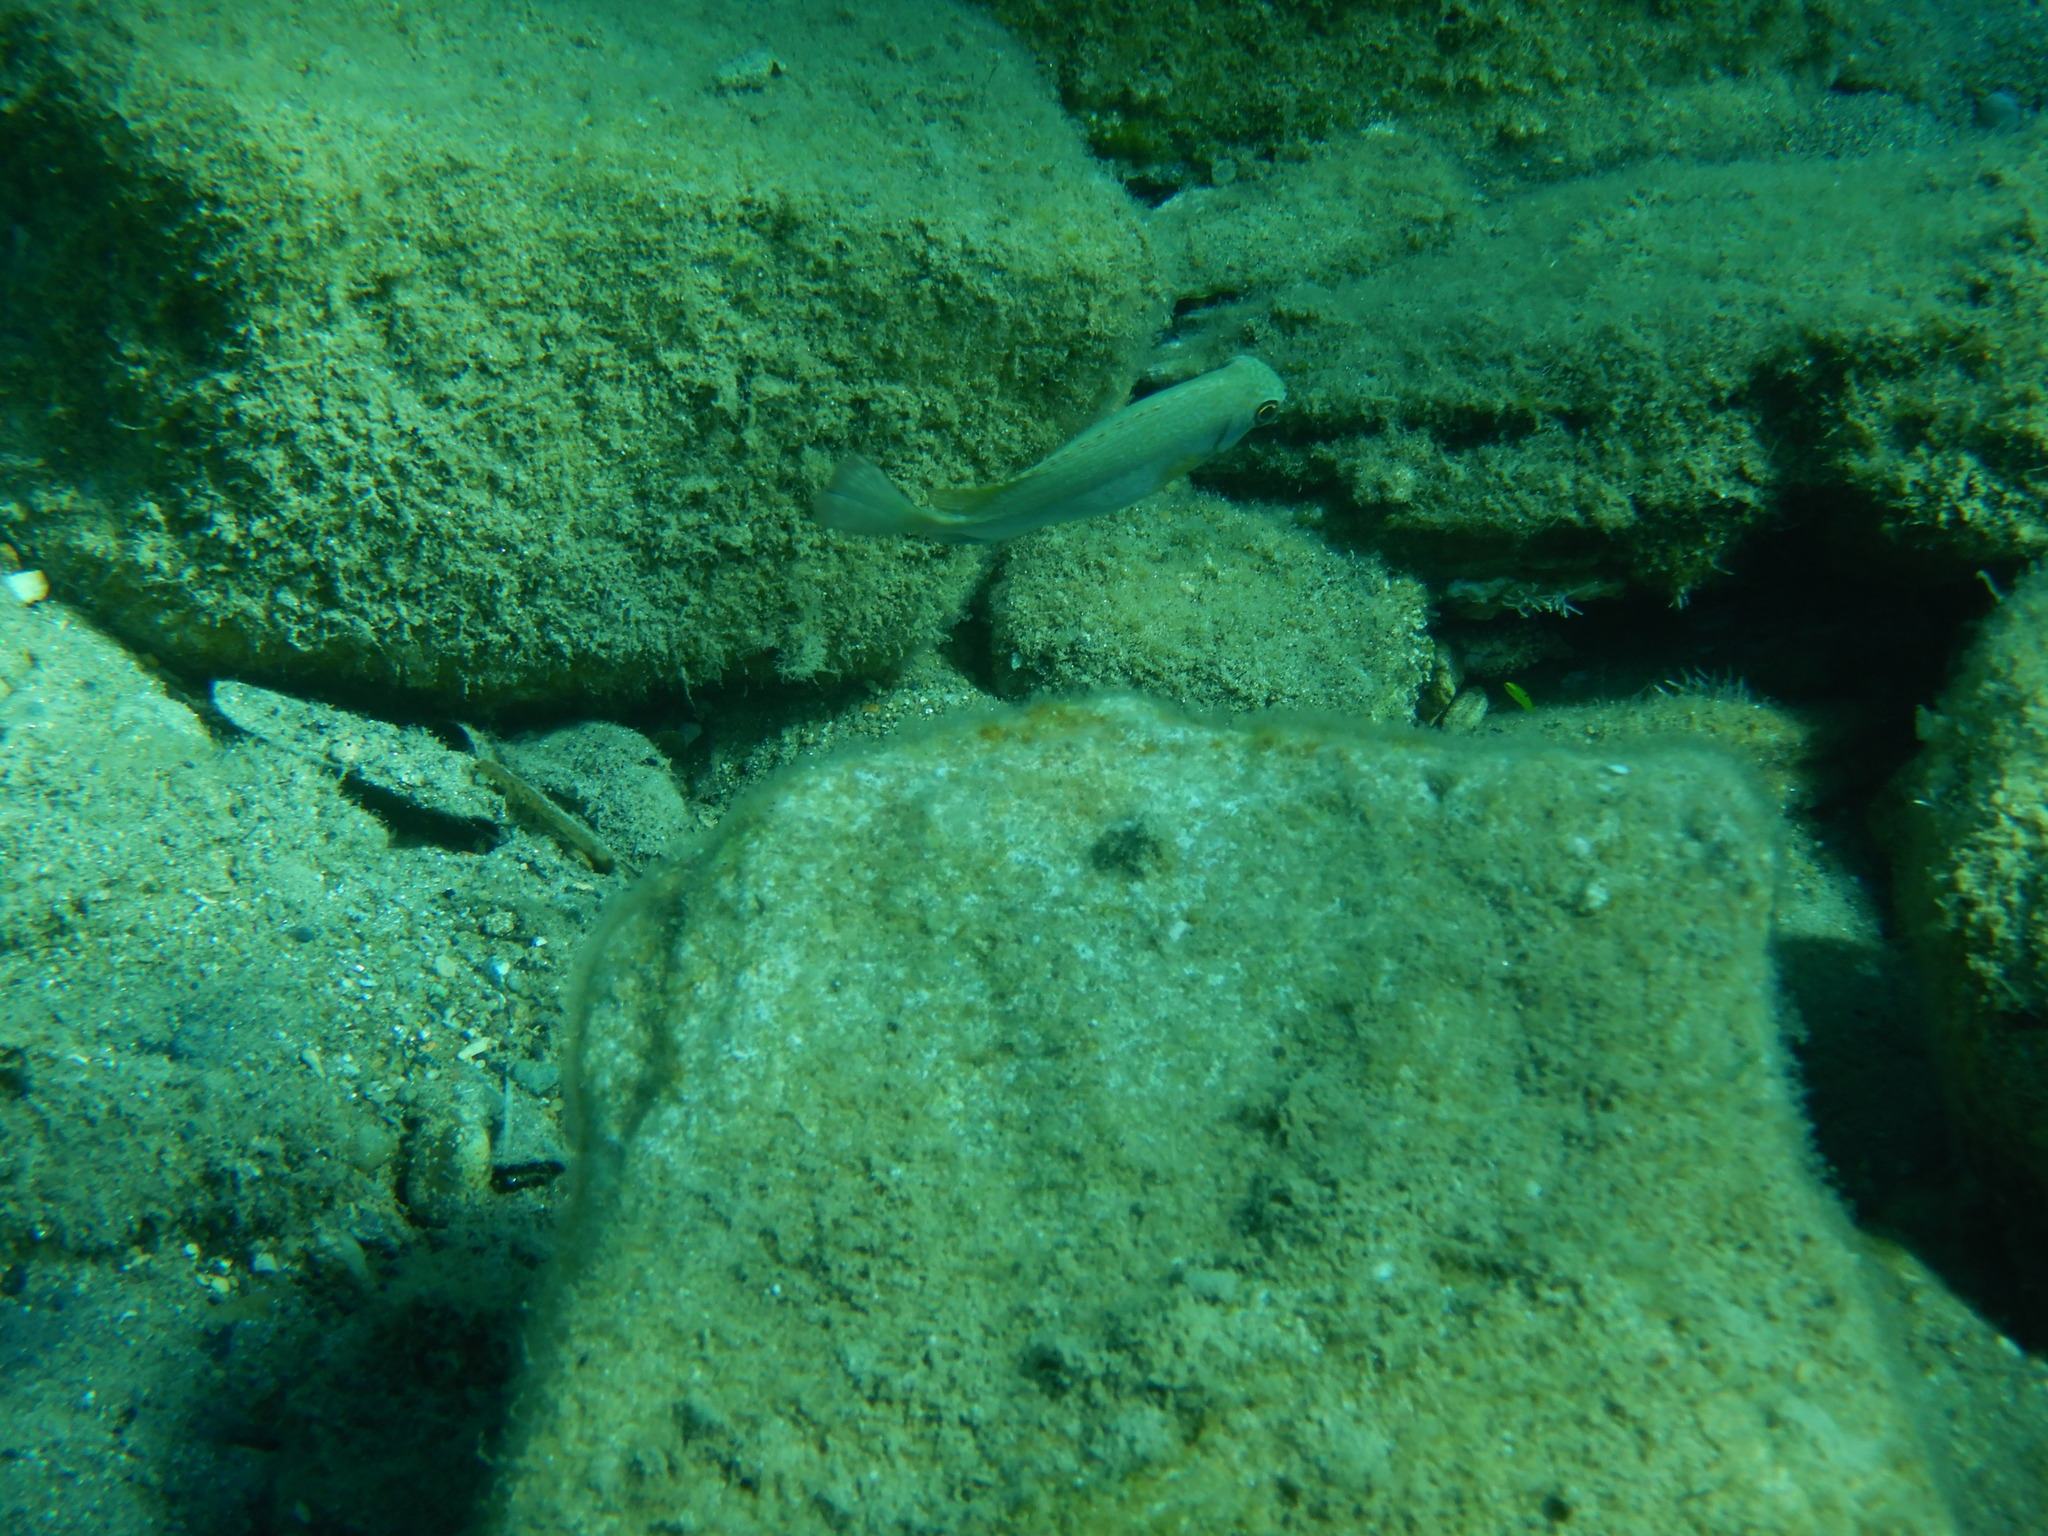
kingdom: Animalia
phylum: Chordata
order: Perciformes
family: Siganidae
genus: Siganus
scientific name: Siganus luridus
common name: Dusky spinefoot
